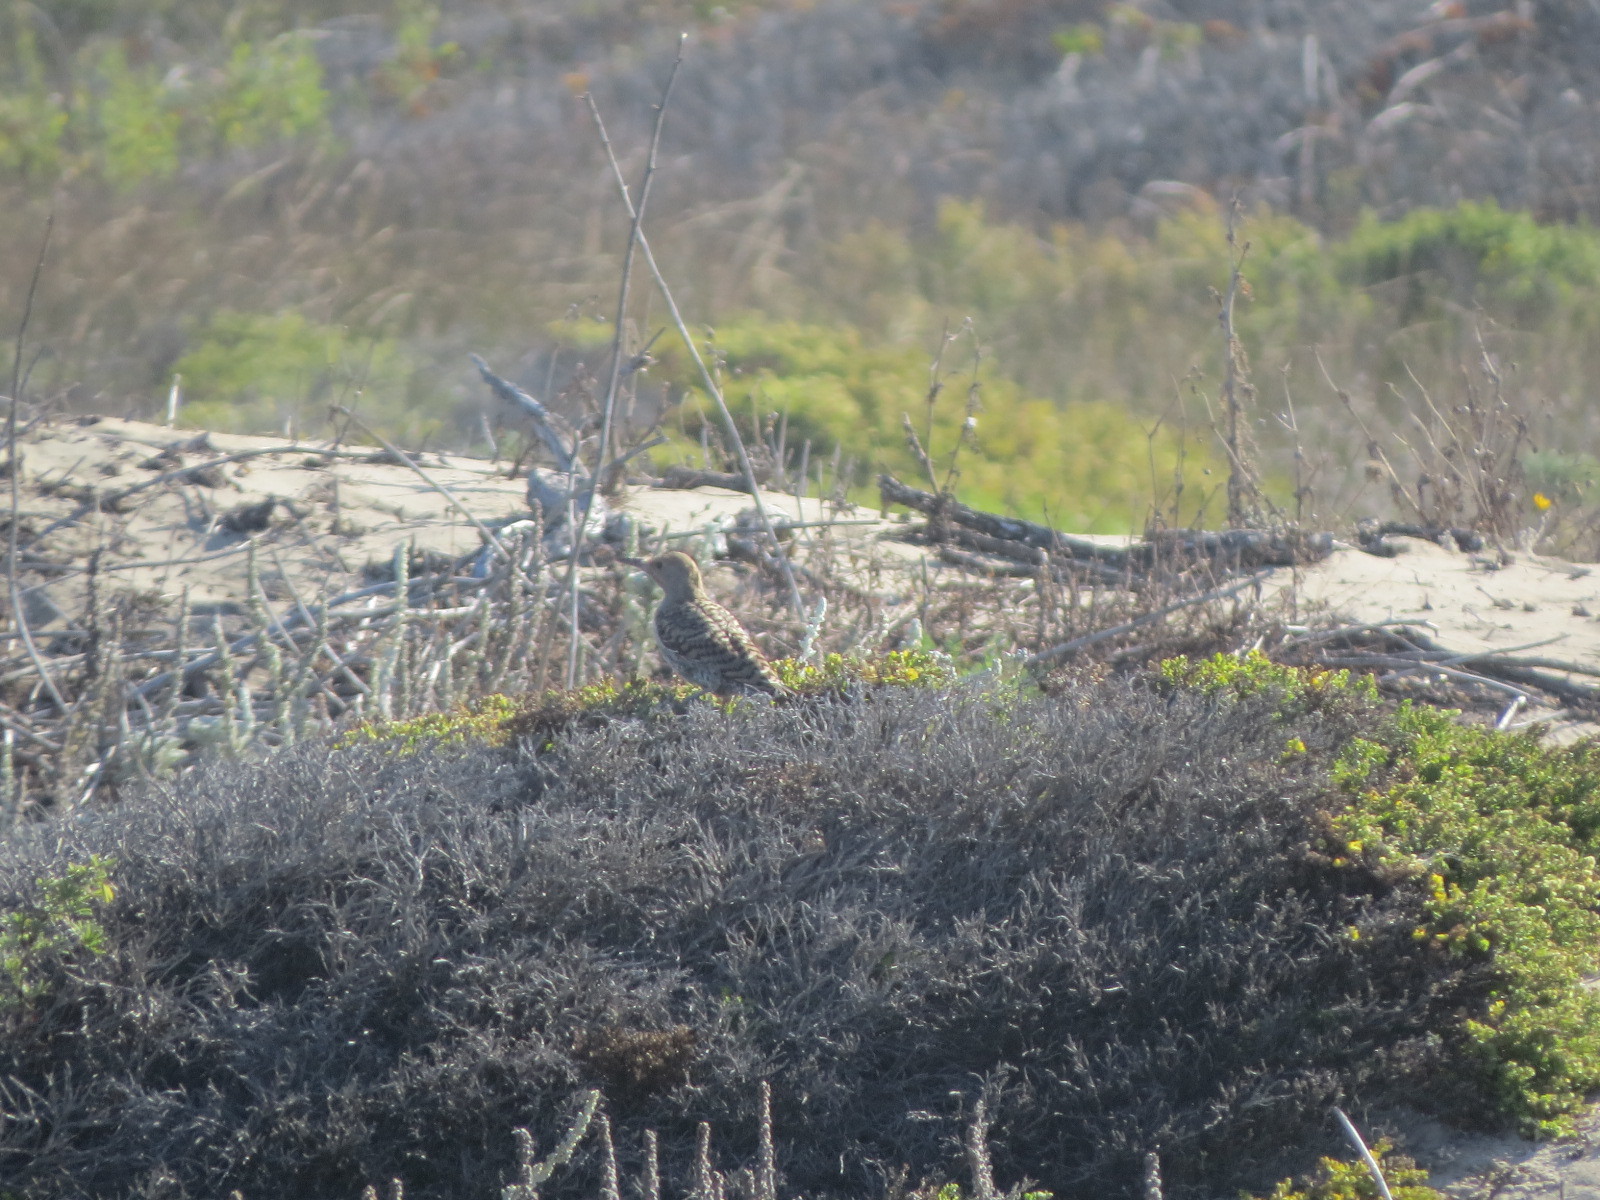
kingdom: Animalia
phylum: Chordata
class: Aves
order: Piciformes
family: Picidae
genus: Colaptes
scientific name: Colaptes auratus
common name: Northern flicker
